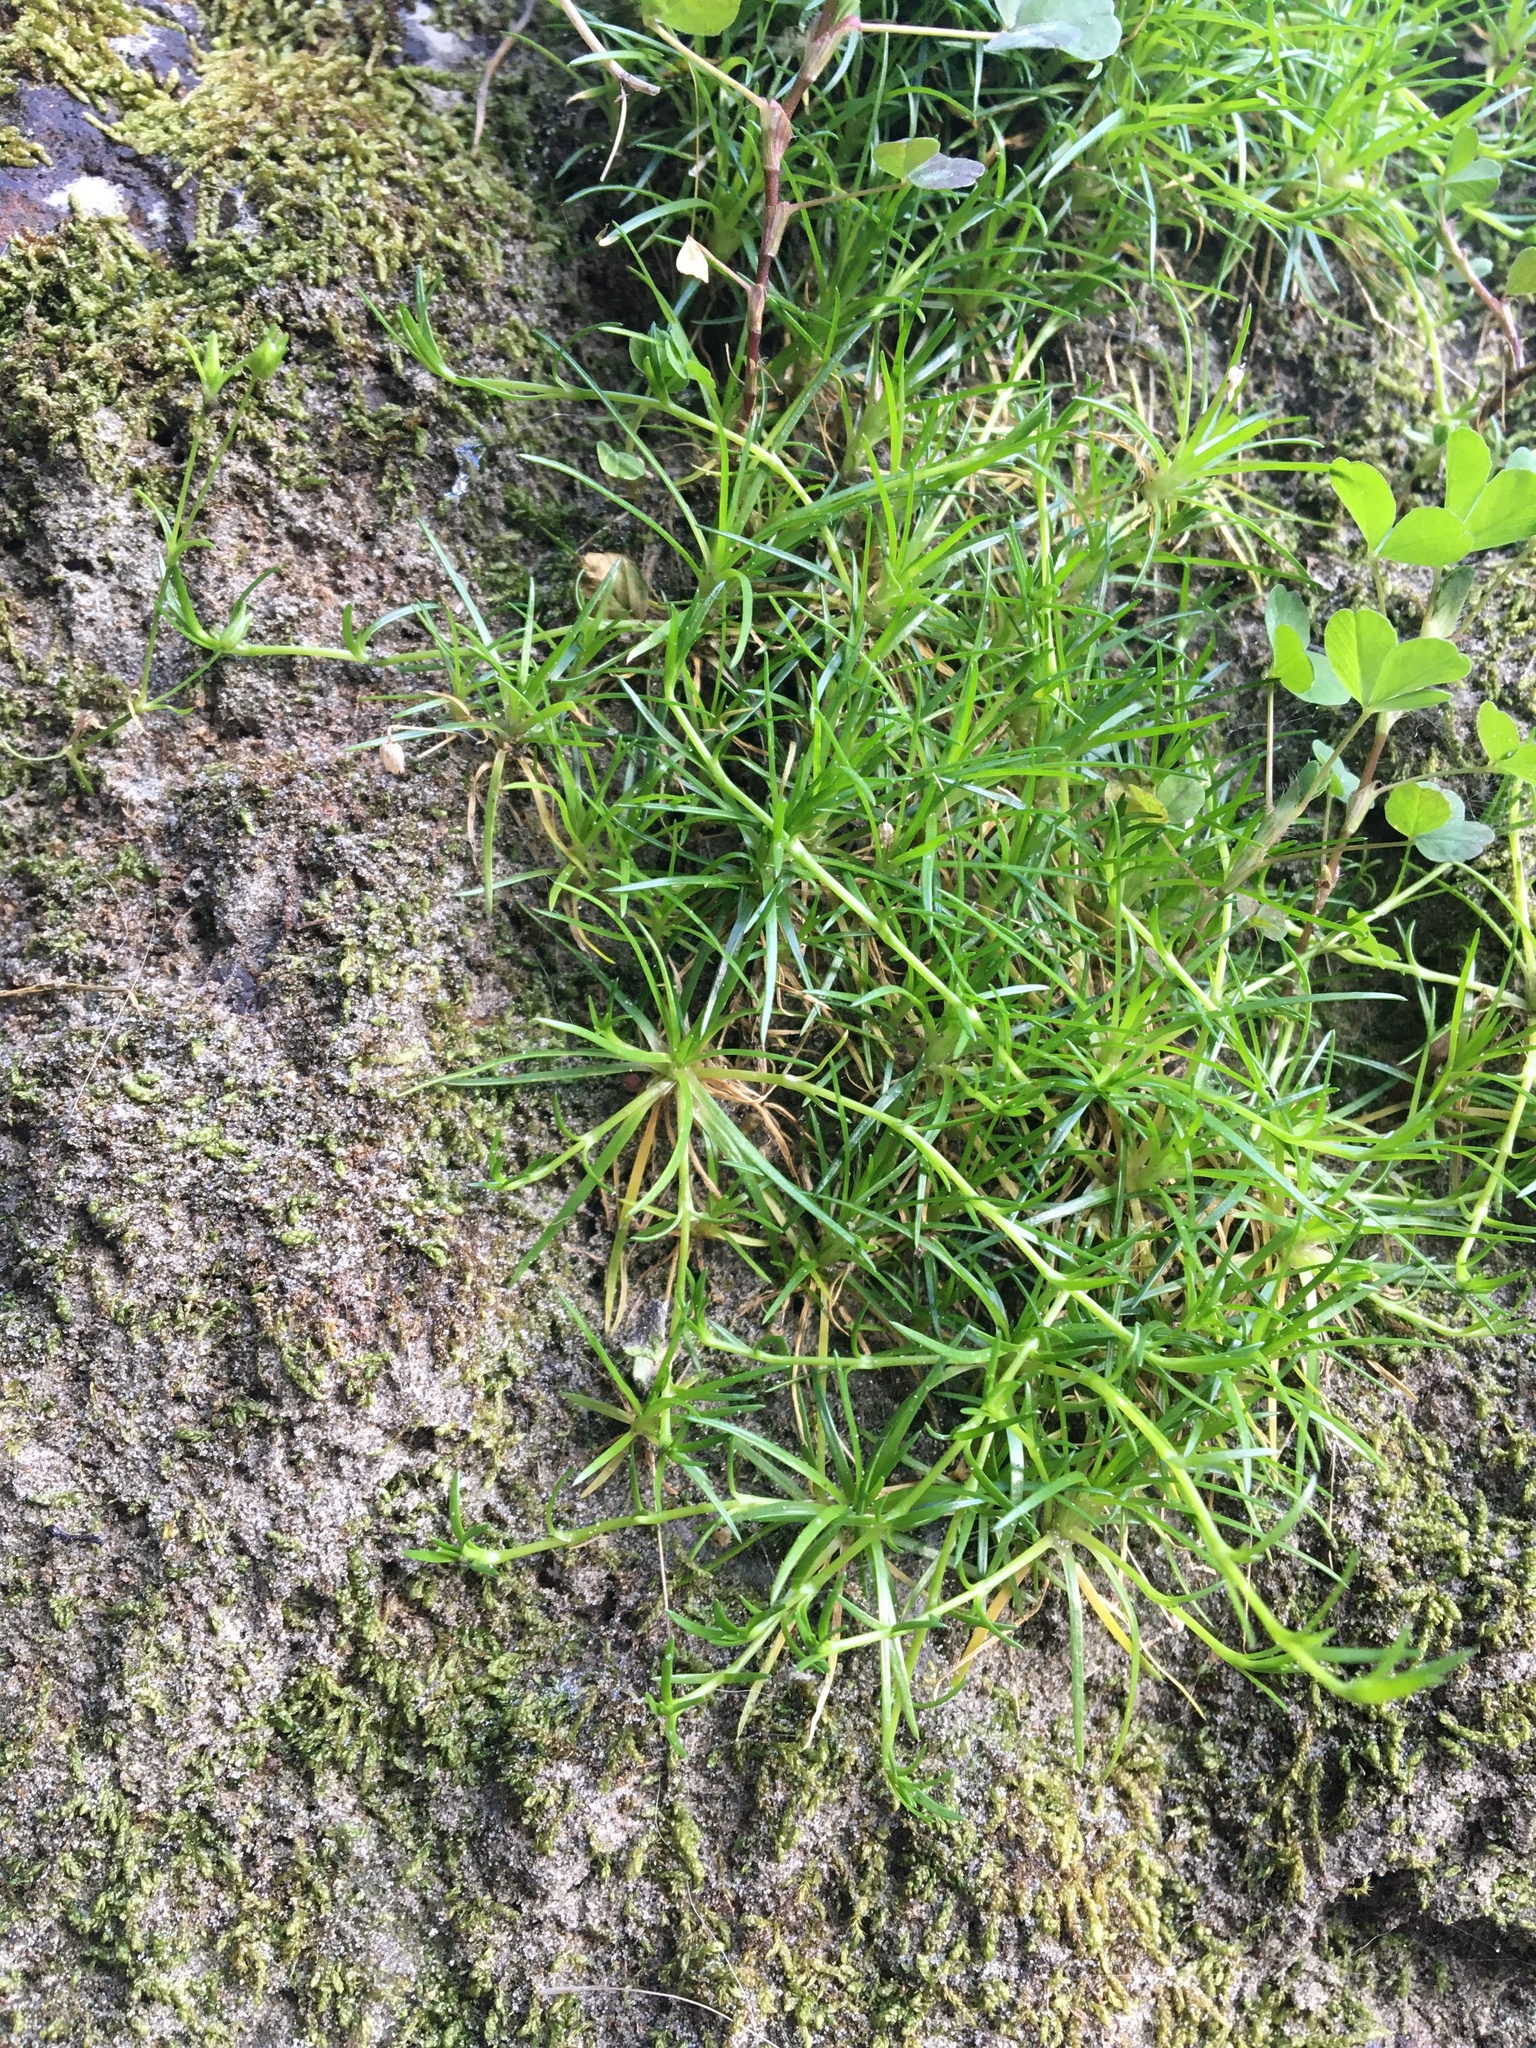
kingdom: Plantae
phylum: Tracheophyta
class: Magnoliopsida
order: Caryophyllales
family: Caryophyllaceae
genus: Sagina
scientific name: Sagina procumbens
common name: Procumbent pearlwort
